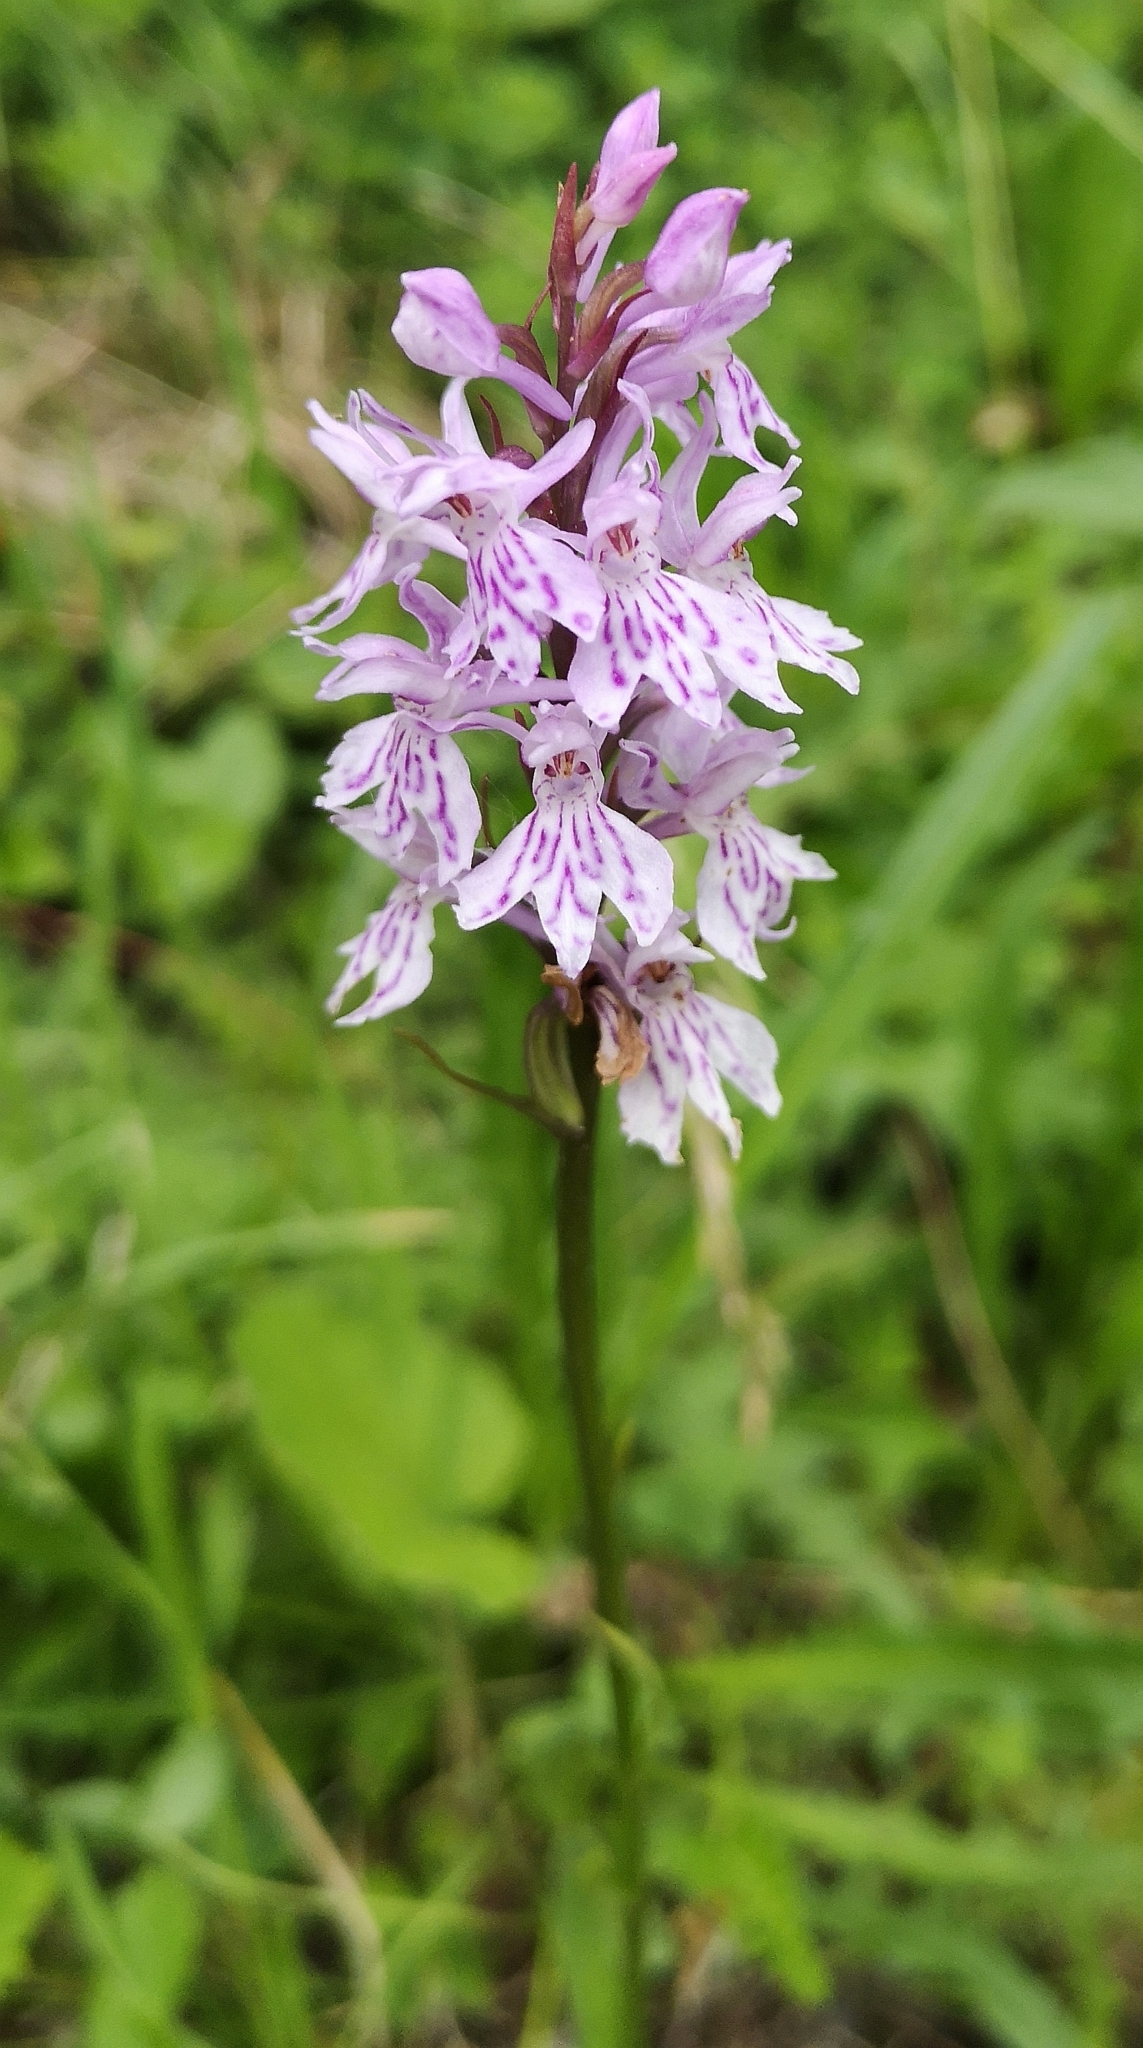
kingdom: Plantae
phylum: Tracheophyta
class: Liliopsida
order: Asparagales
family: Orchidaceae
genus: Dactylorhiza
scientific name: Dactylorhiza maculata
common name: Heath spotted-orchid
